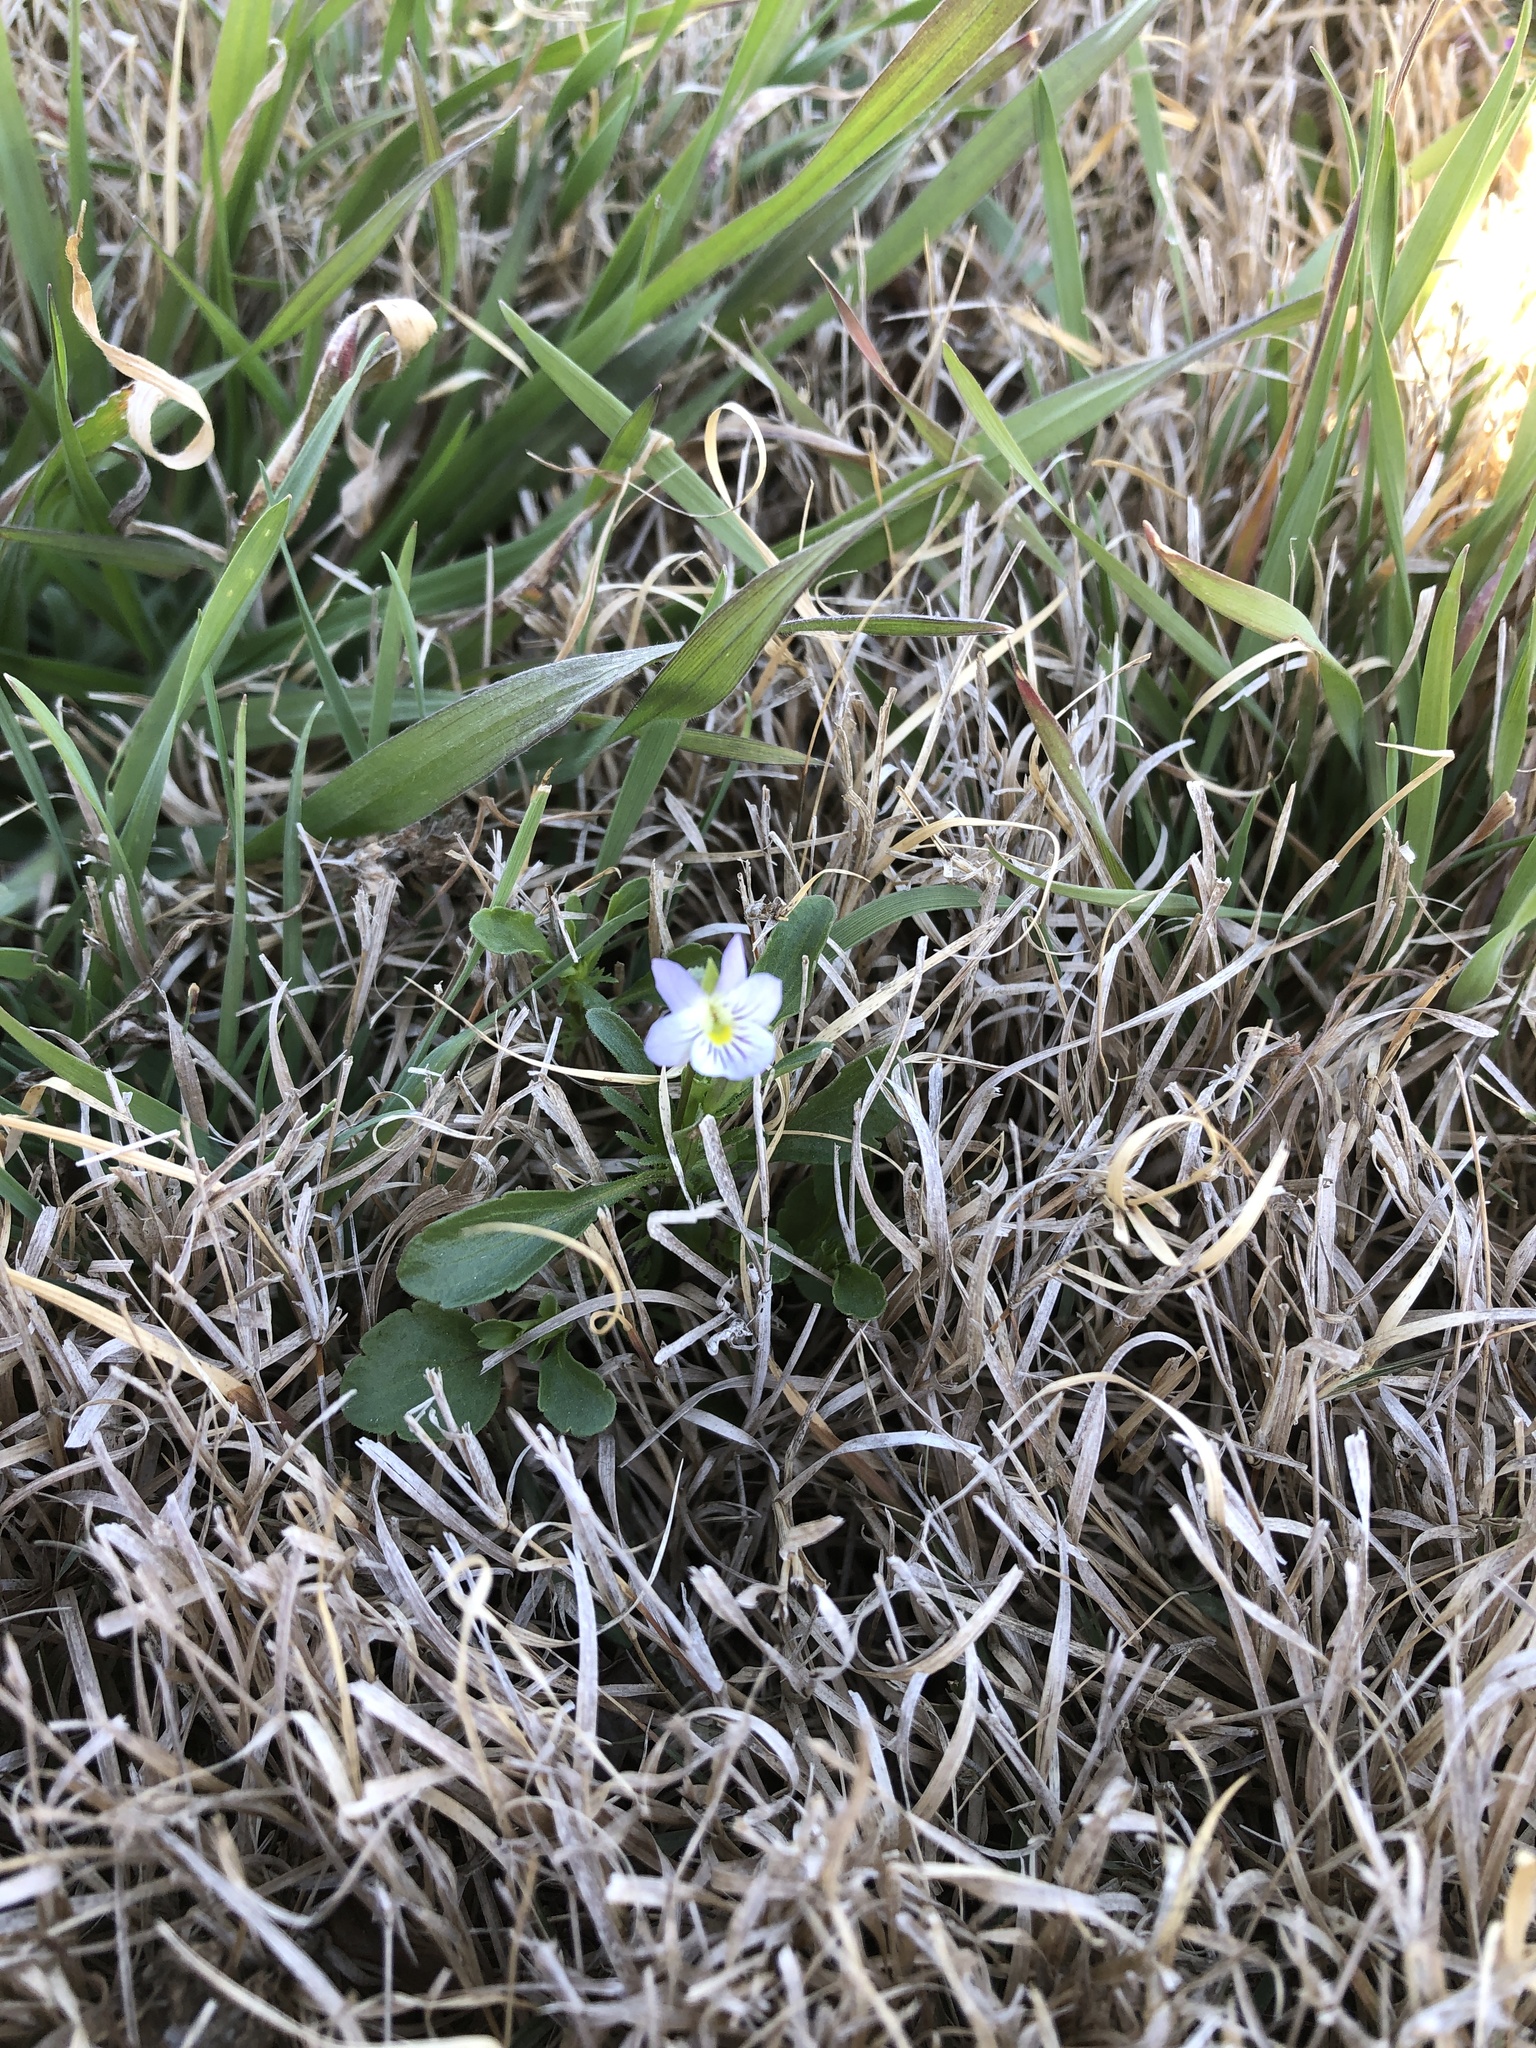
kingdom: Plantae
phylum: Tracheophyta
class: Magnoliopsida
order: Malpighiales
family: Violaceae
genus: Viola
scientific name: Viola rafinesquei
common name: American field pansy
